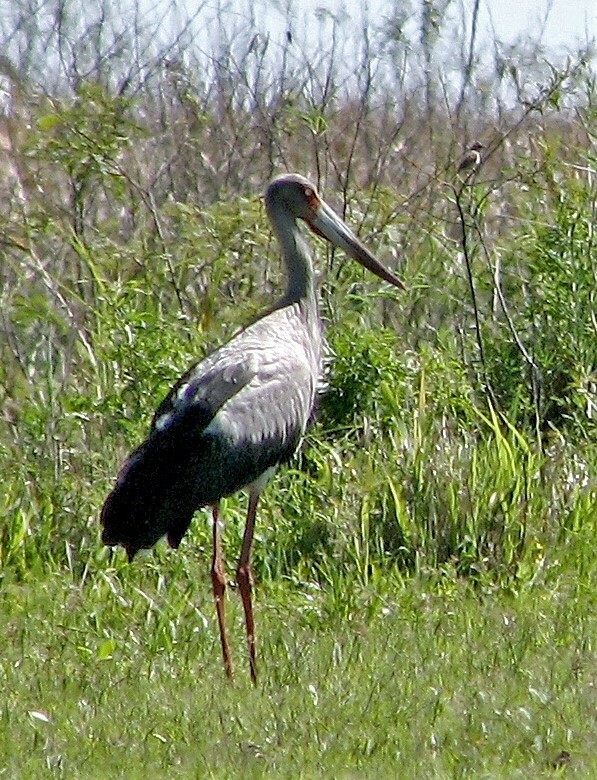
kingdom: Animalia
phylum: Chordata
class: Aves
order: Ciconiiformes
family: Ciconiidae
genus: Ciconia
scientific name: Ciconia maguari
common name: Maguari stork
